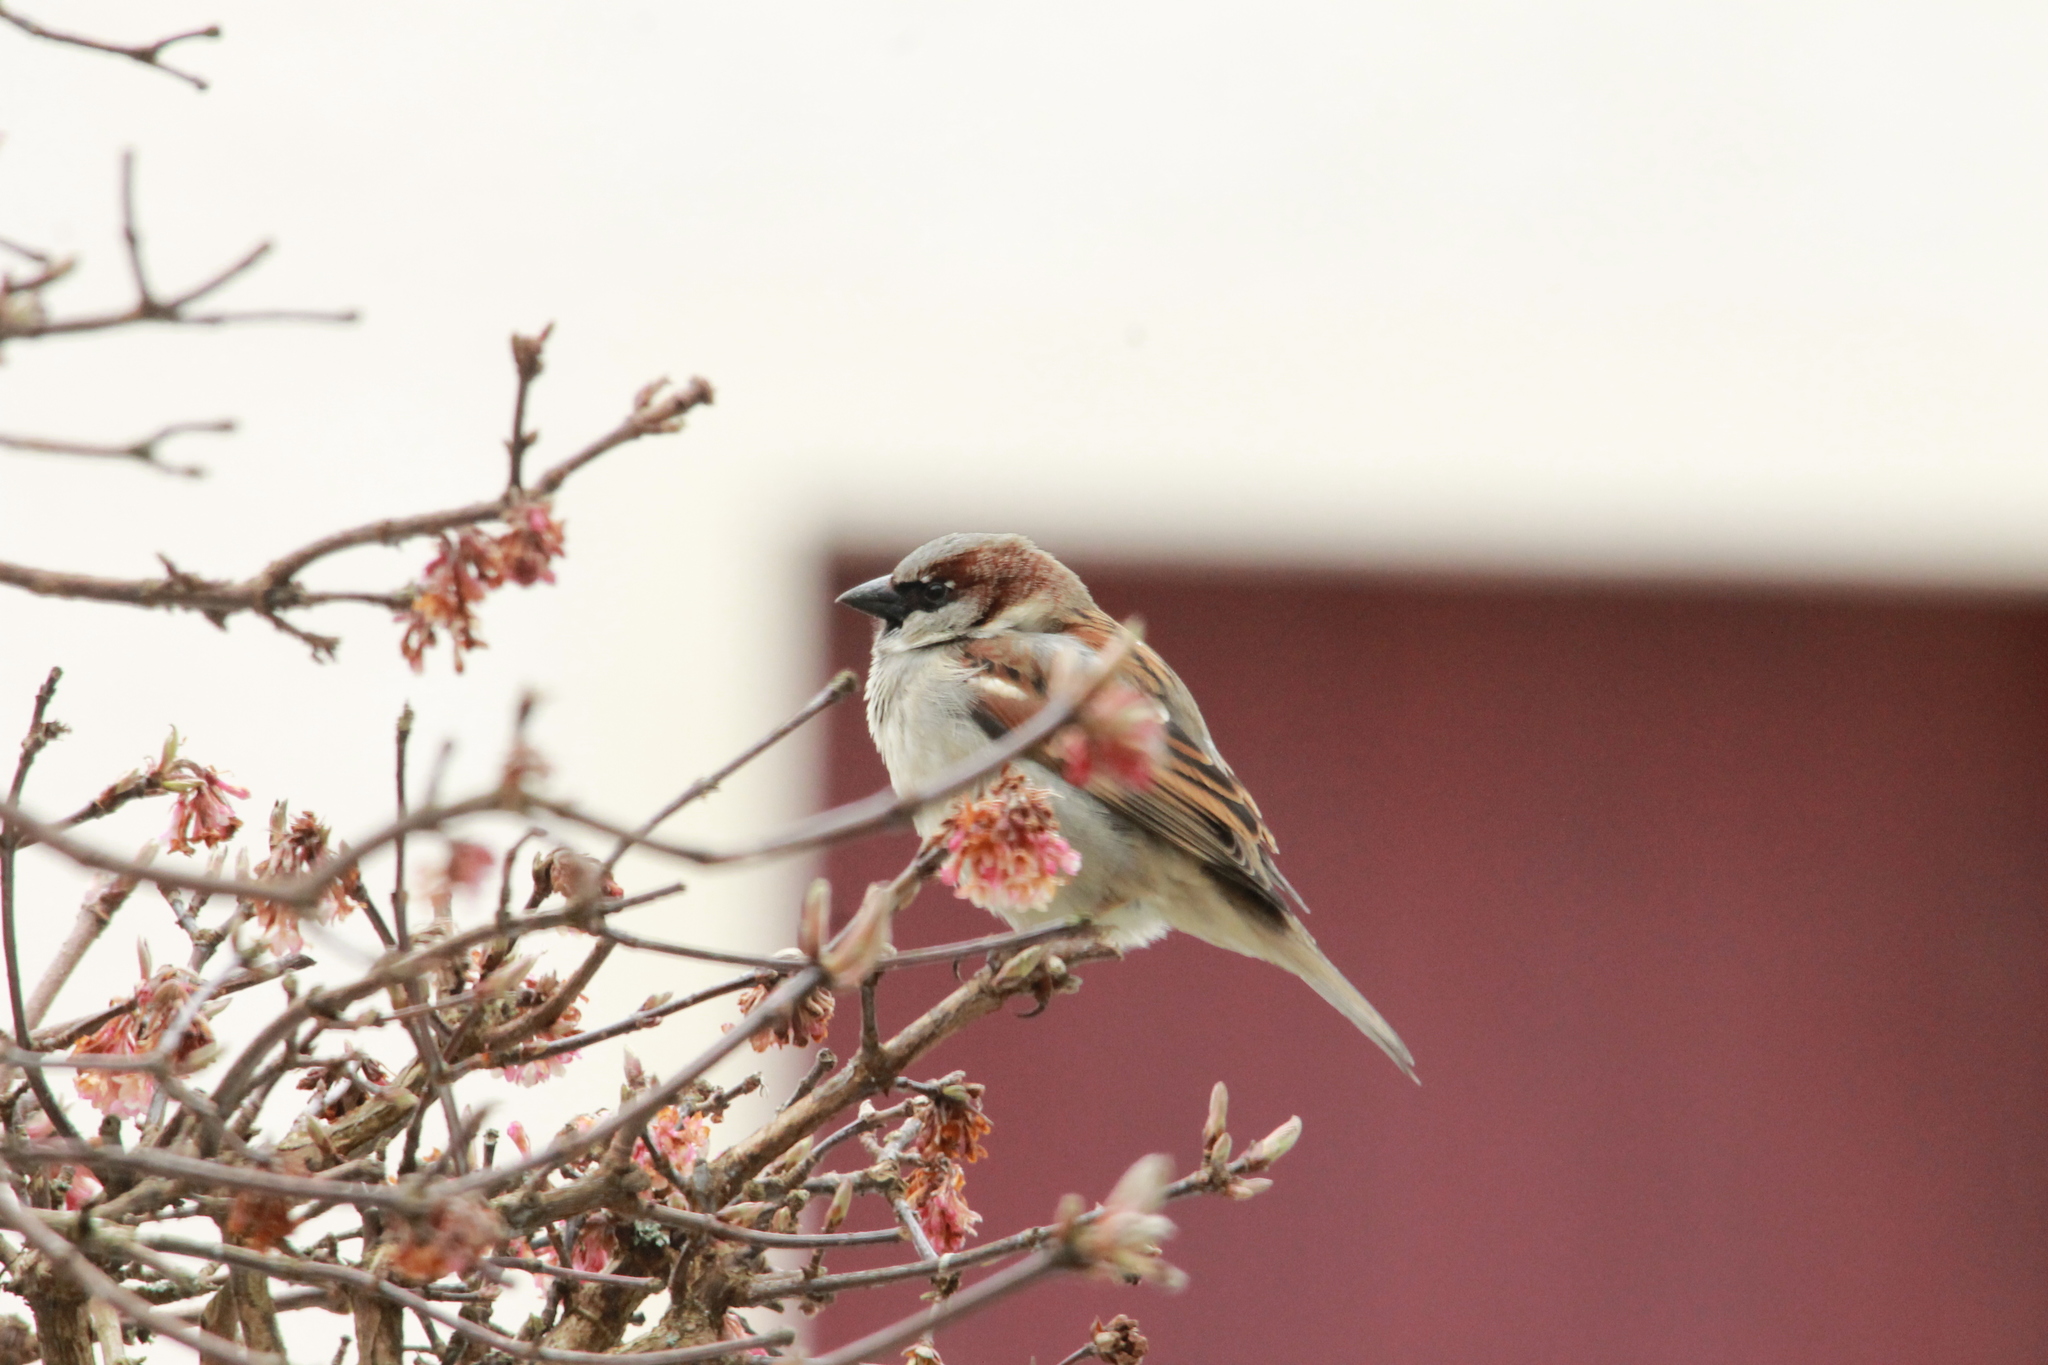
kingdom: Animalia
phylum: Chordata
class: Aves
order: Passeriformes
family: Passeridae
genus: Passer
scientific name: Passer domesticus
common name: House sparrow
